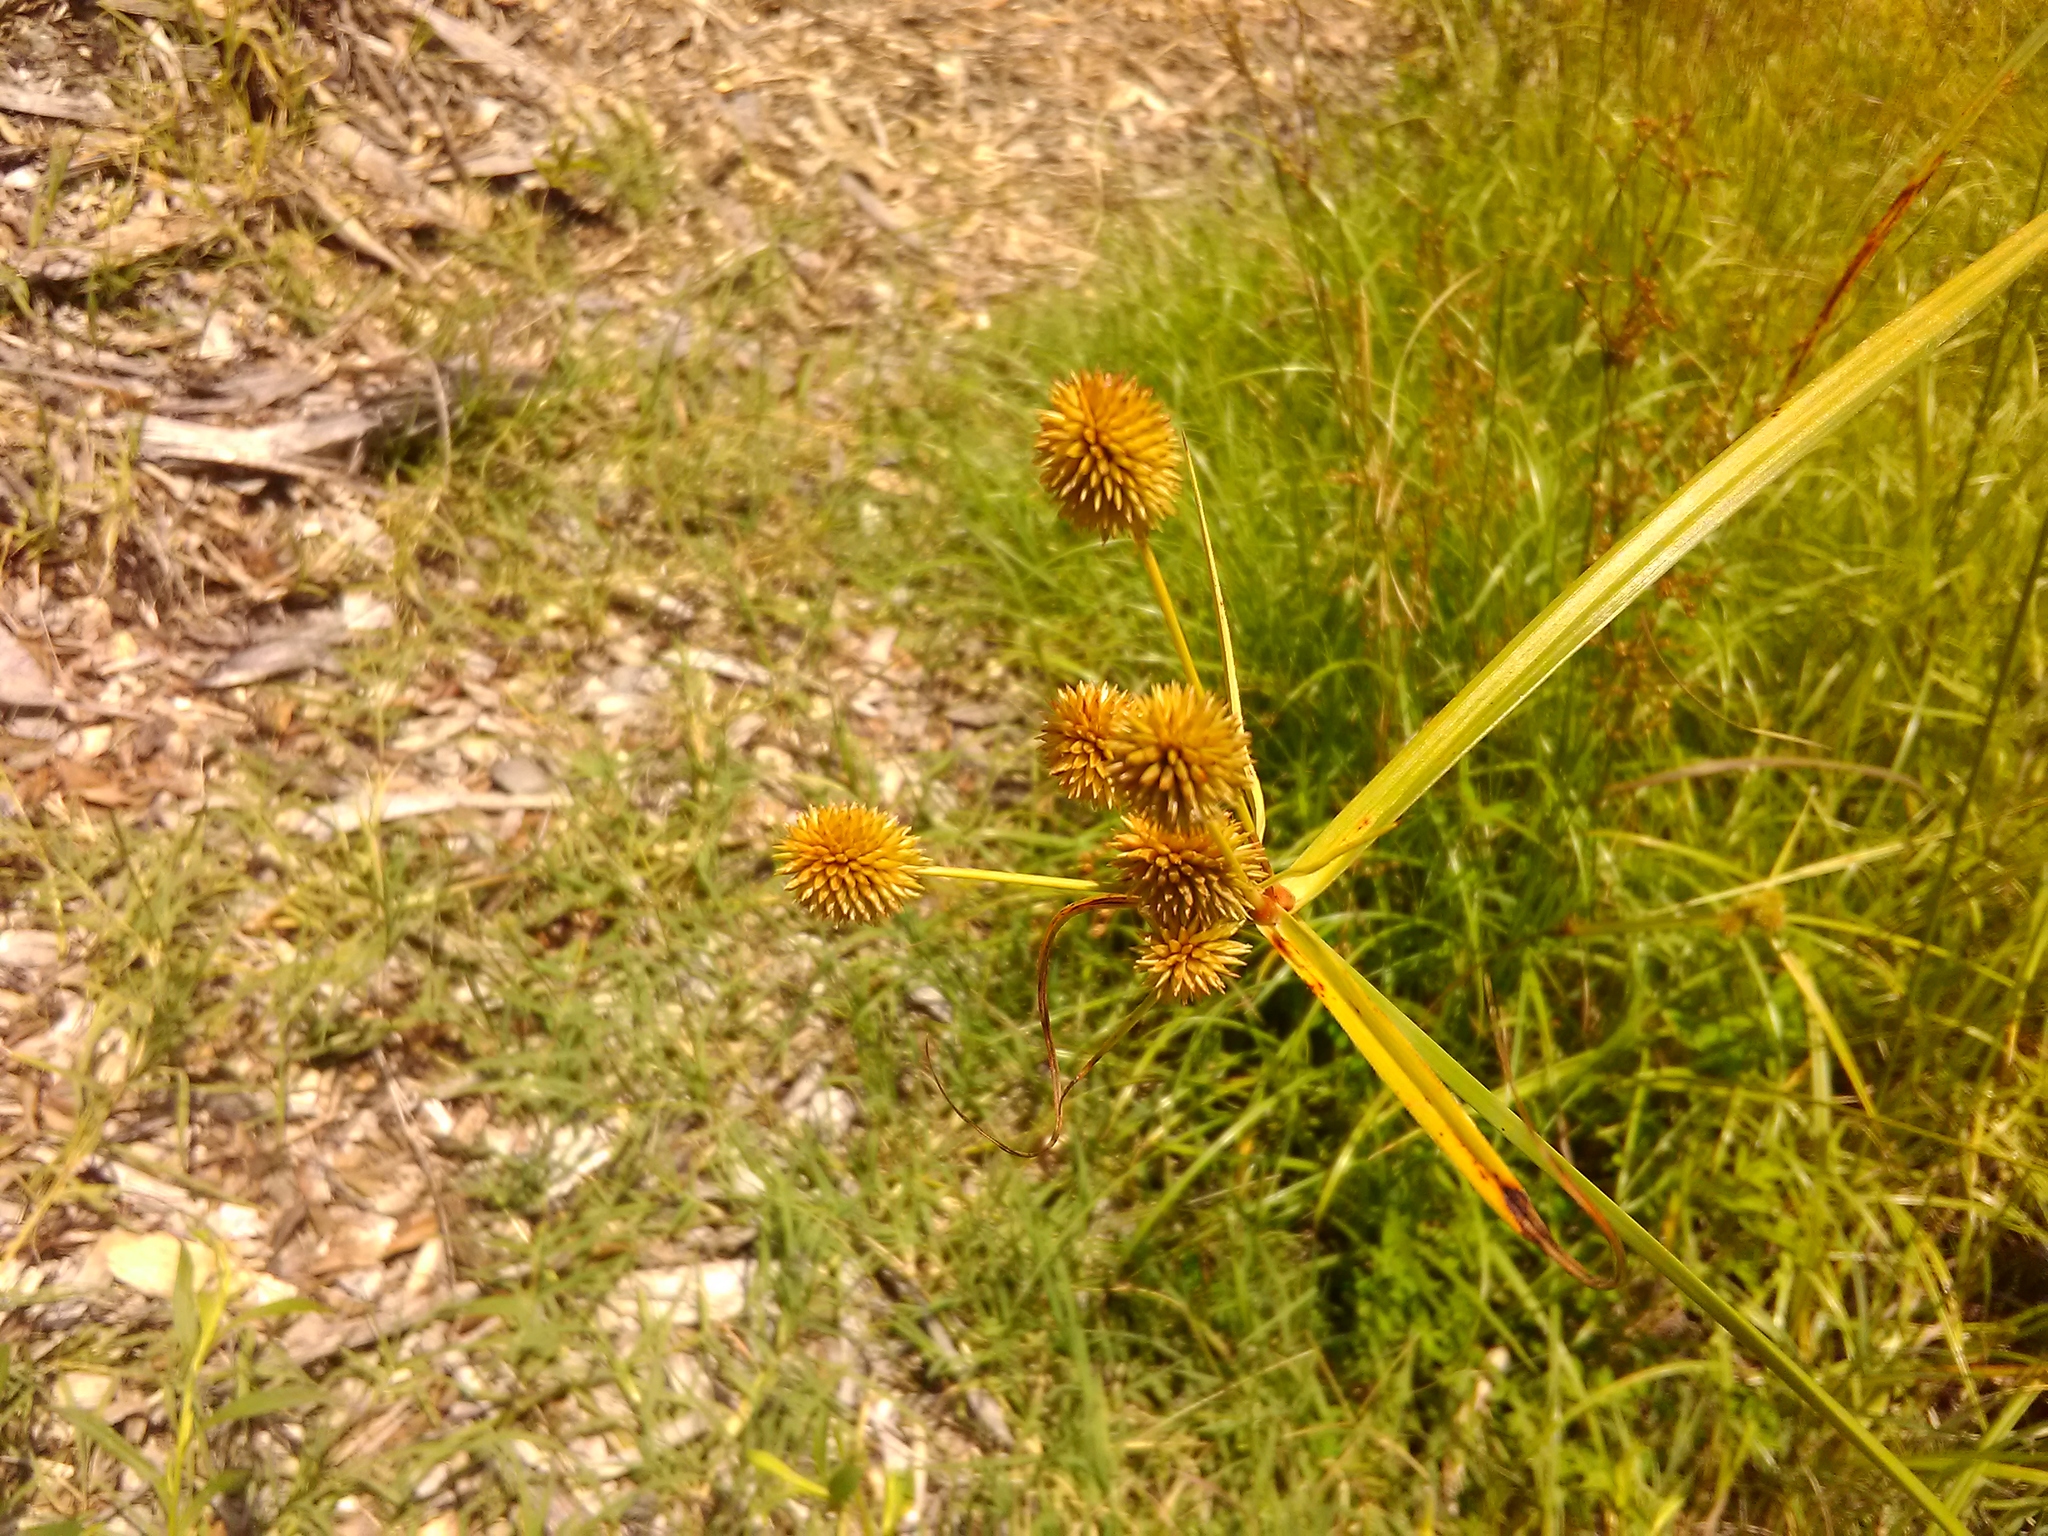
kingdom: Plantae
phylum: Tracheophyta
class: Liliopsida
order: Poales
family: Cyperaceae
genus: Cyperus
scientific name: Cyperus echinatus
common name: Teasel sedge
